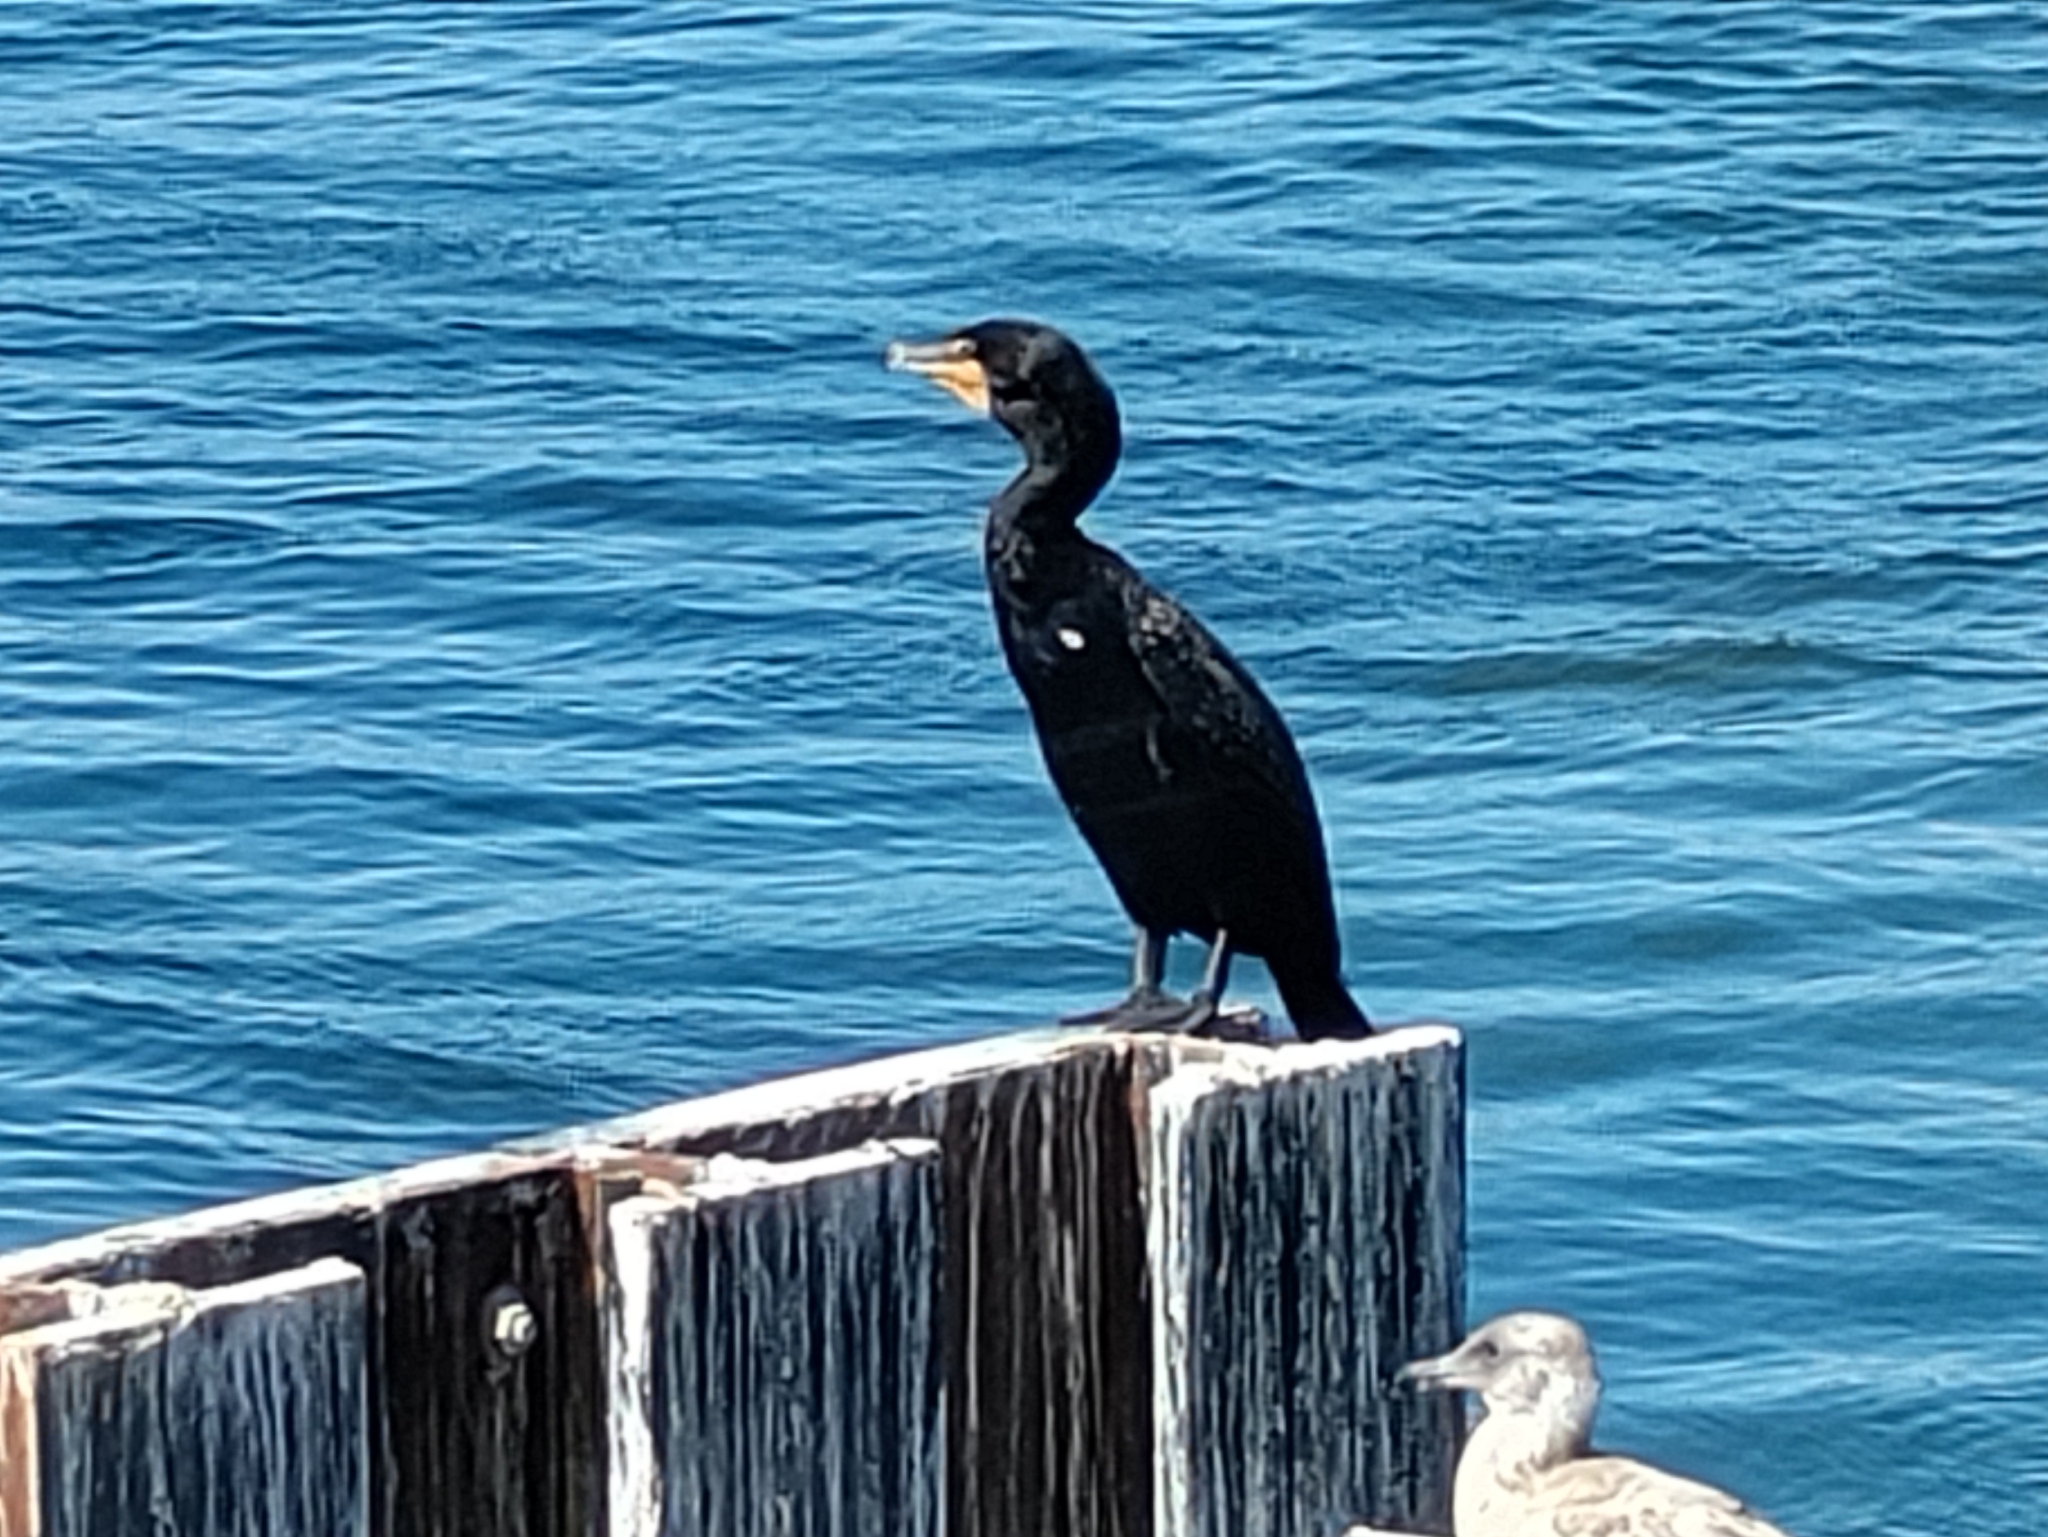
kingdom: Animalia
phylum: Chordata
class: Aves
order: Suliformes
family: Phalacrocoracidae
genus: Phalacrocorax
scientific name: Phalacrocorax auritus
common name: Double-crested cormorant
